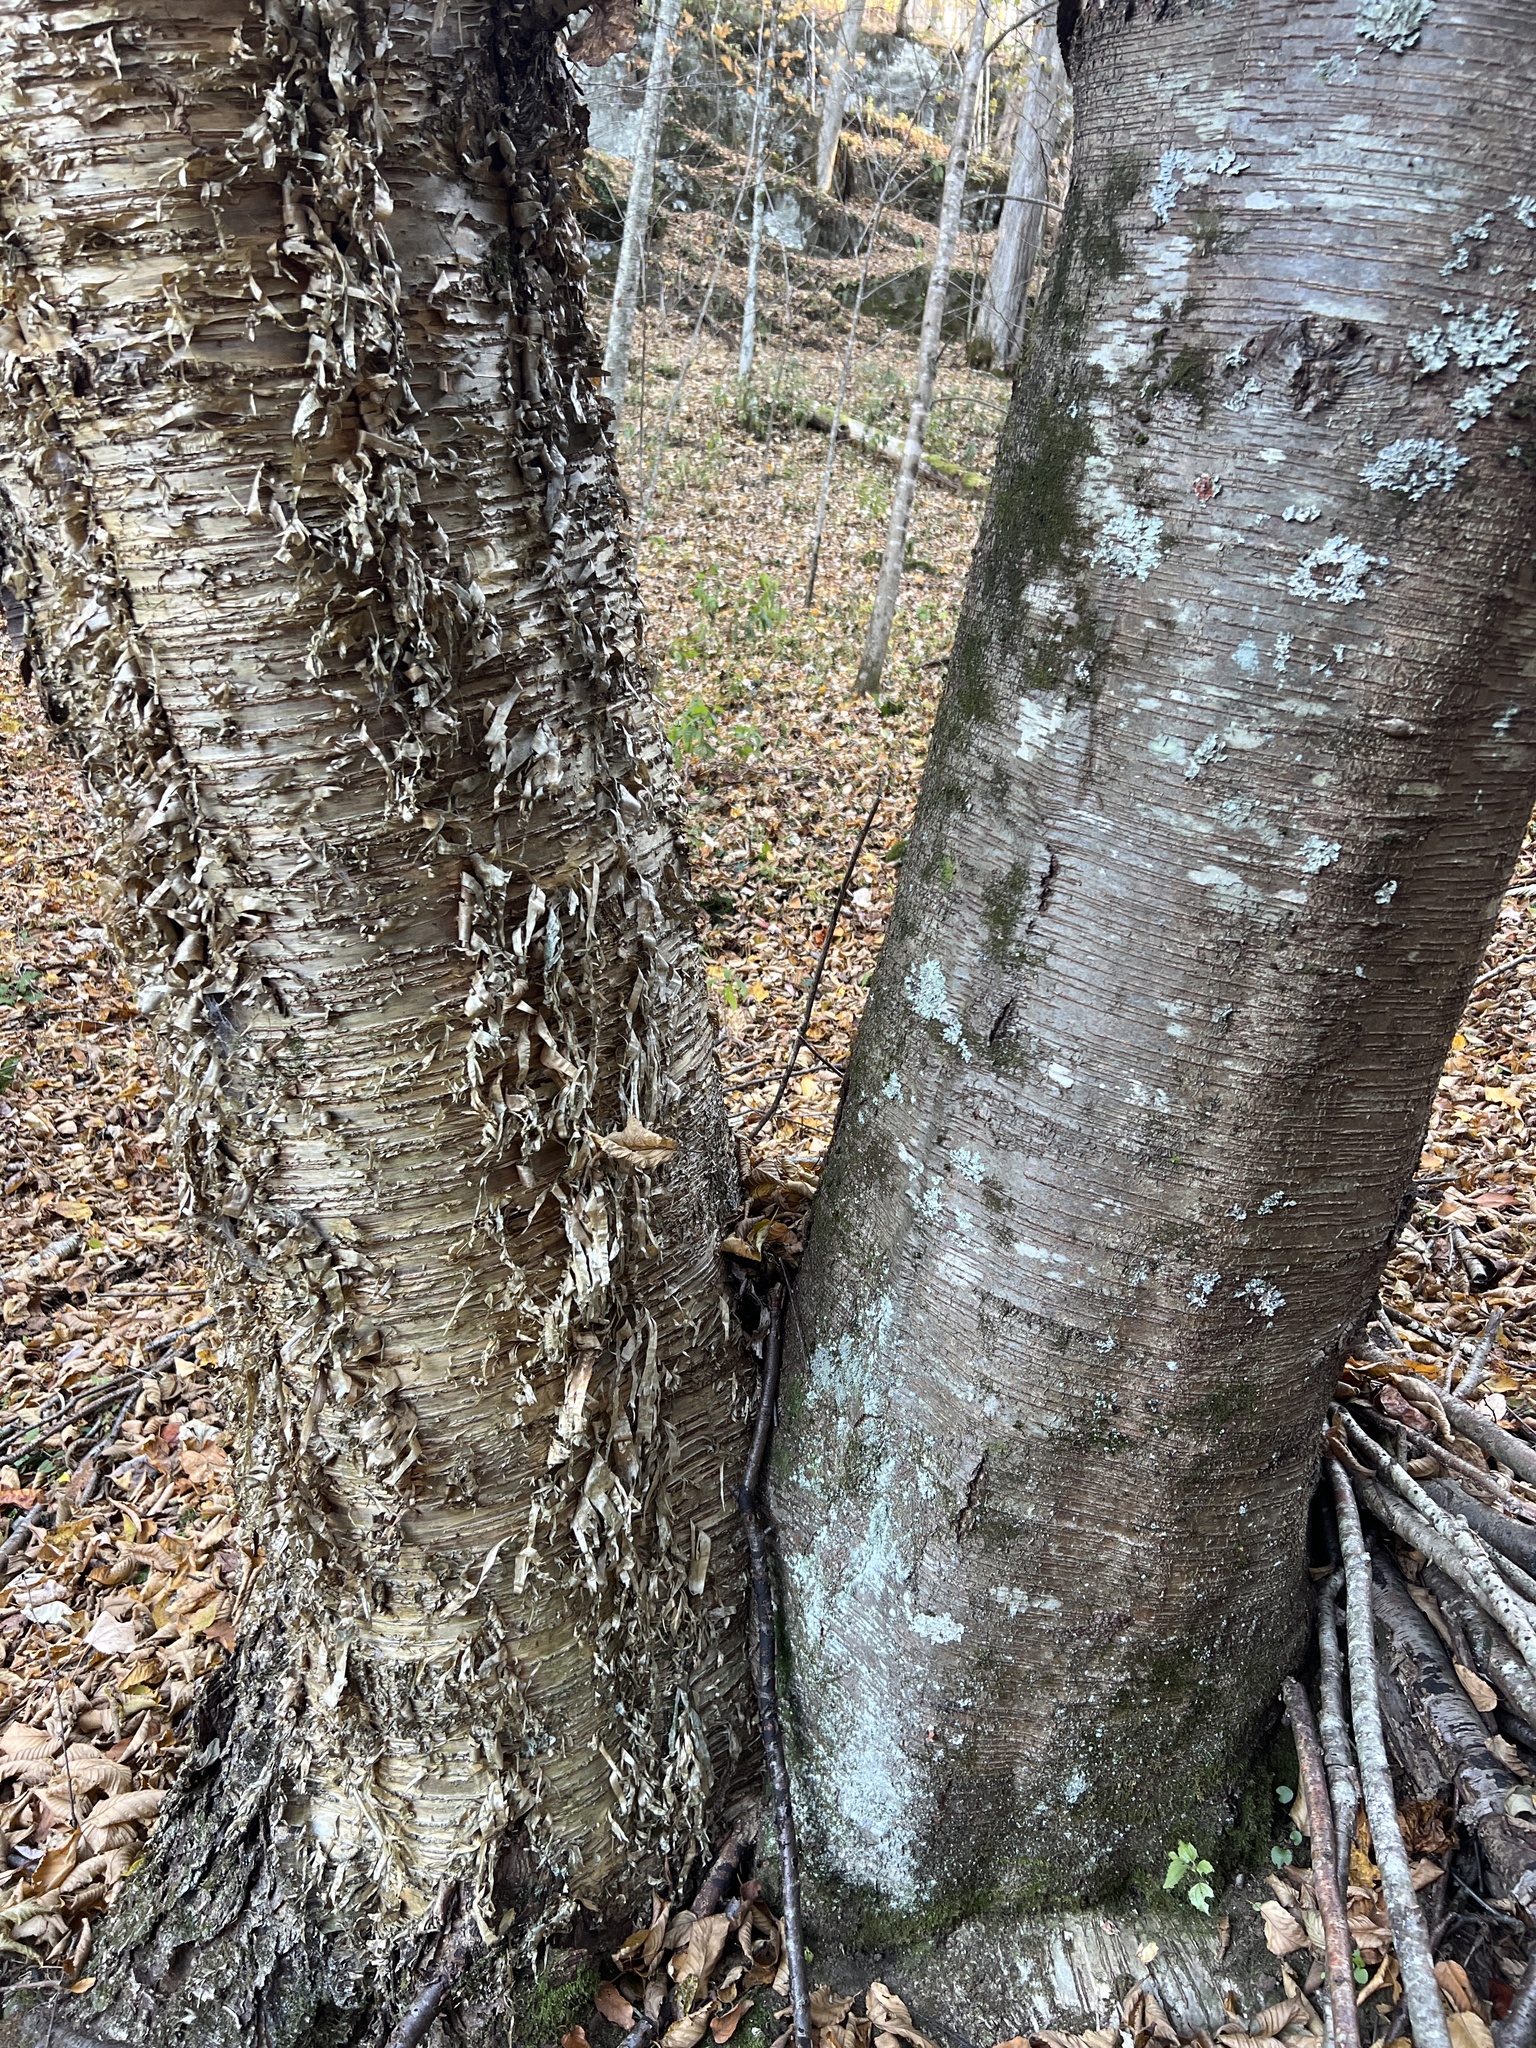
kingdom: Plantae
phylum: Tracheophyta
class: Magnoliopsida
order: Fagales
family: Betulaceae
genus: Betula
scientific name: Betula alleghaniensis
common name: Yellow birch
